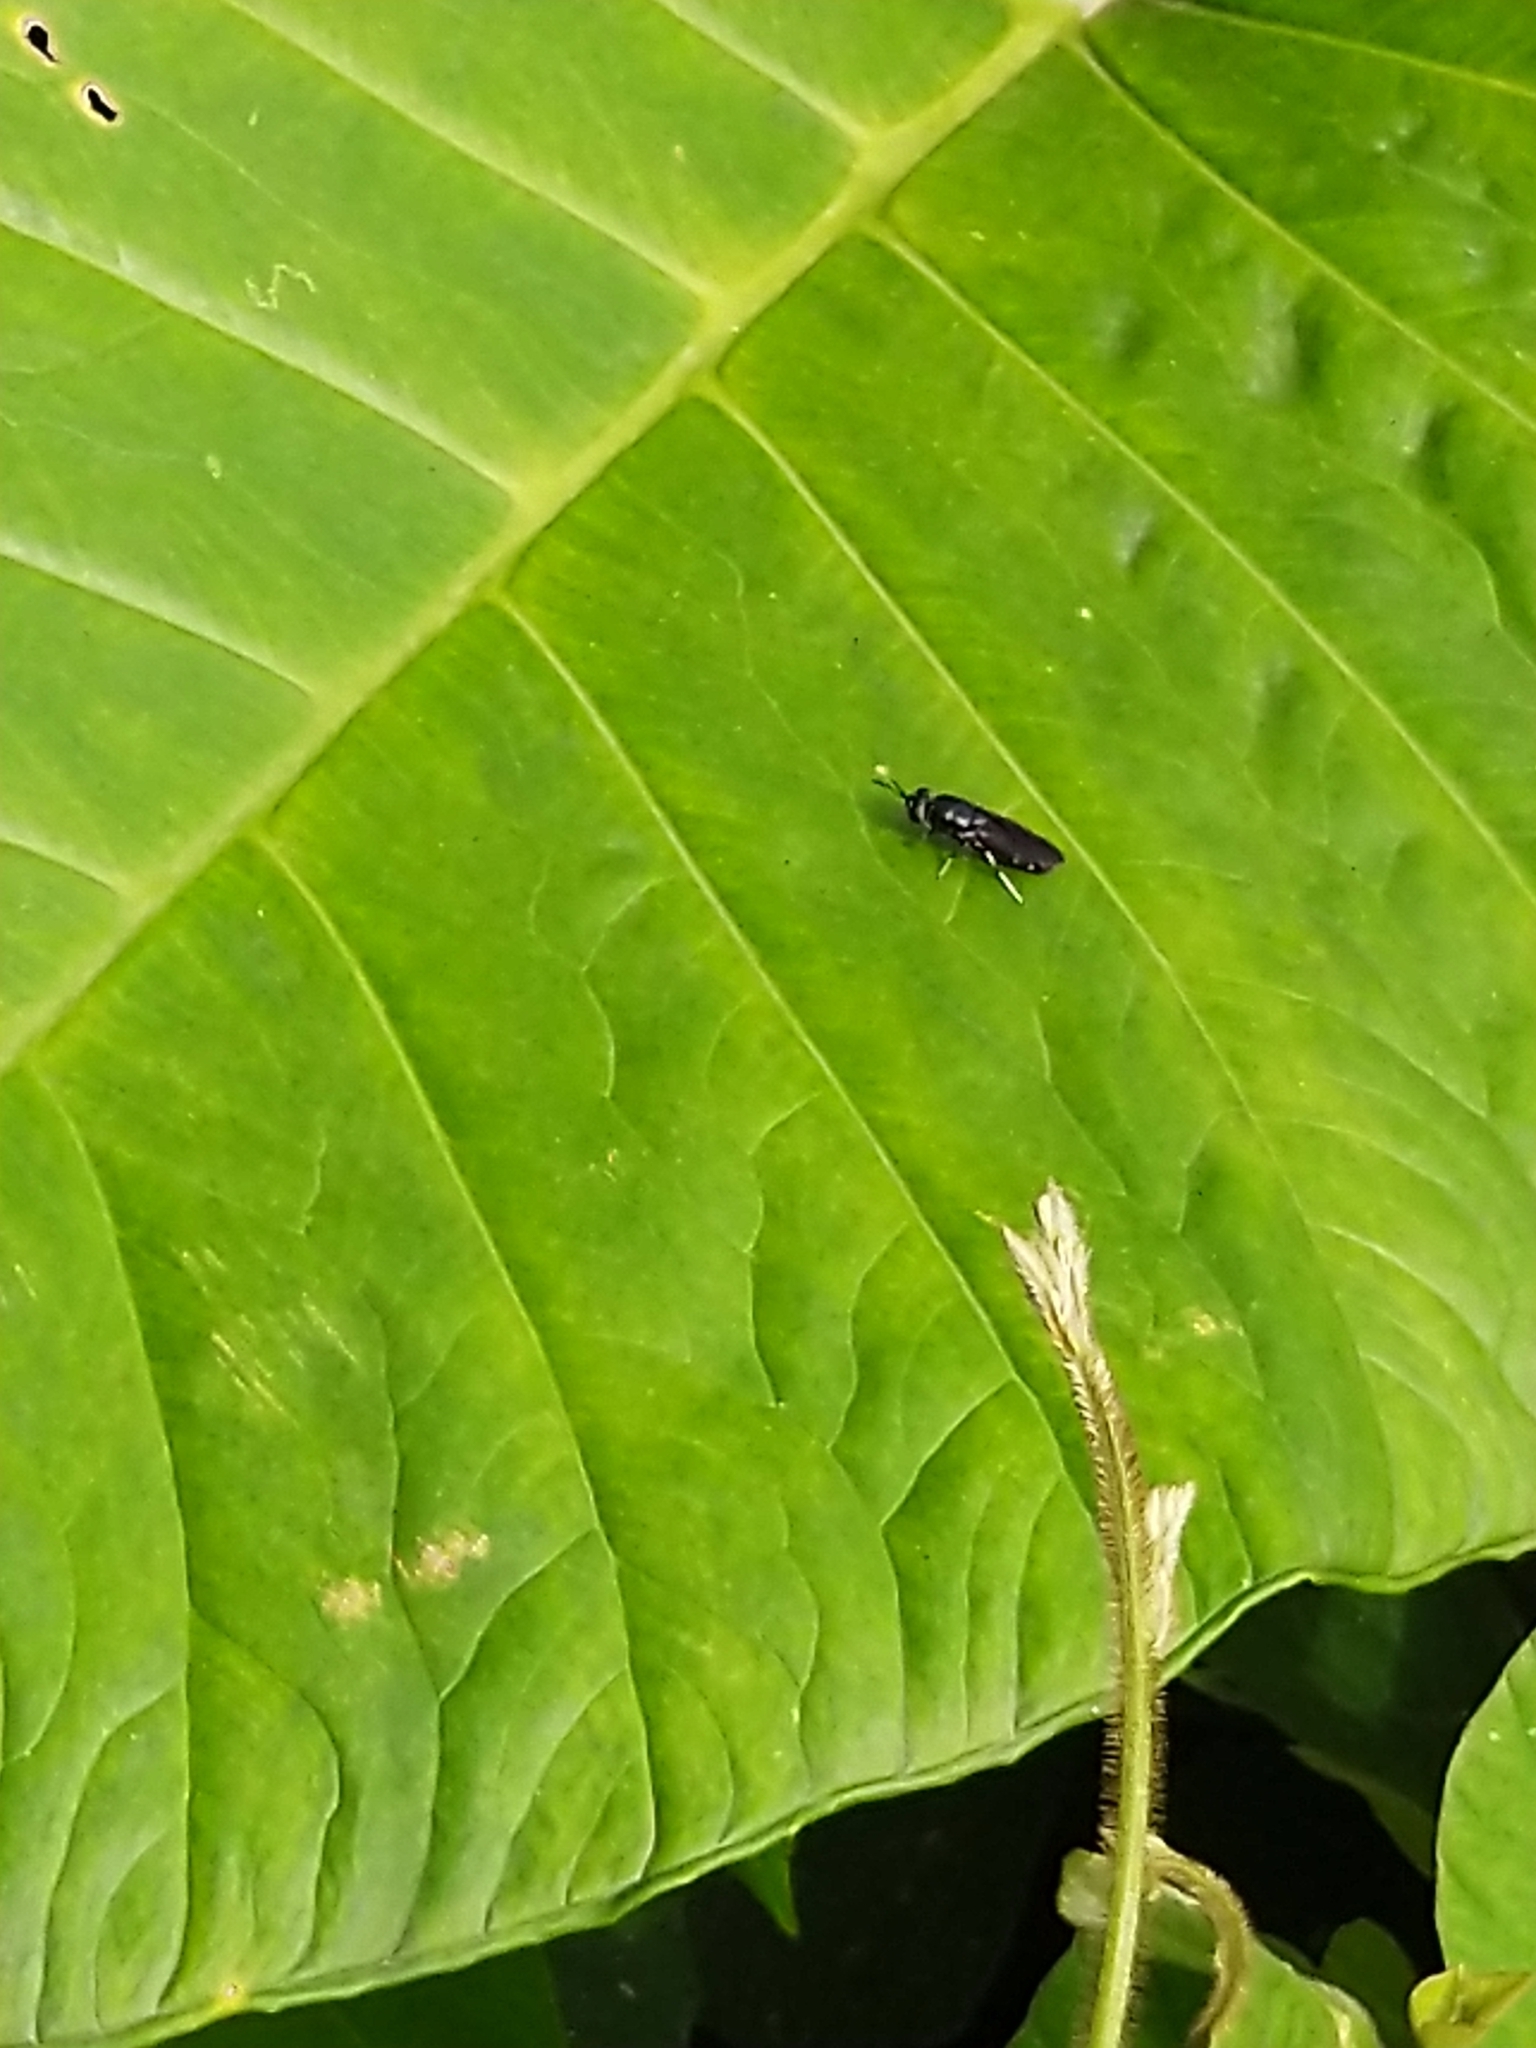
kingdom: Animalia
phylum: Arthropoda
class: Insecta
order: Diptera
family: Stratiomyidae
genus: Hermetia
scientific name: Hermetia illucens
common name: Black soldier fly
